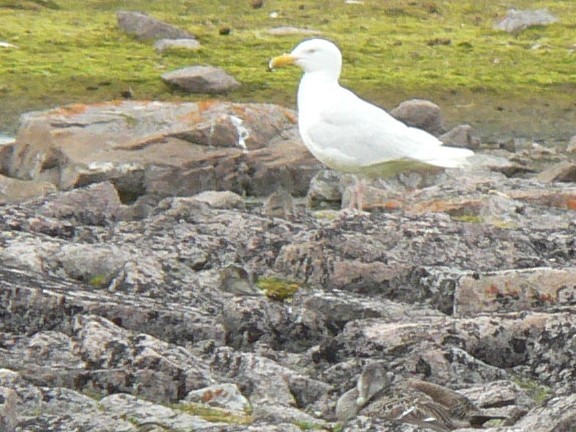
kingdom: Animalia
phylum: Chordata
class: Aves
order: Charadriiformes
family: Laridae
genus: Larus
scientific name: Larus hyperboreus
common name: Glaucous gull
